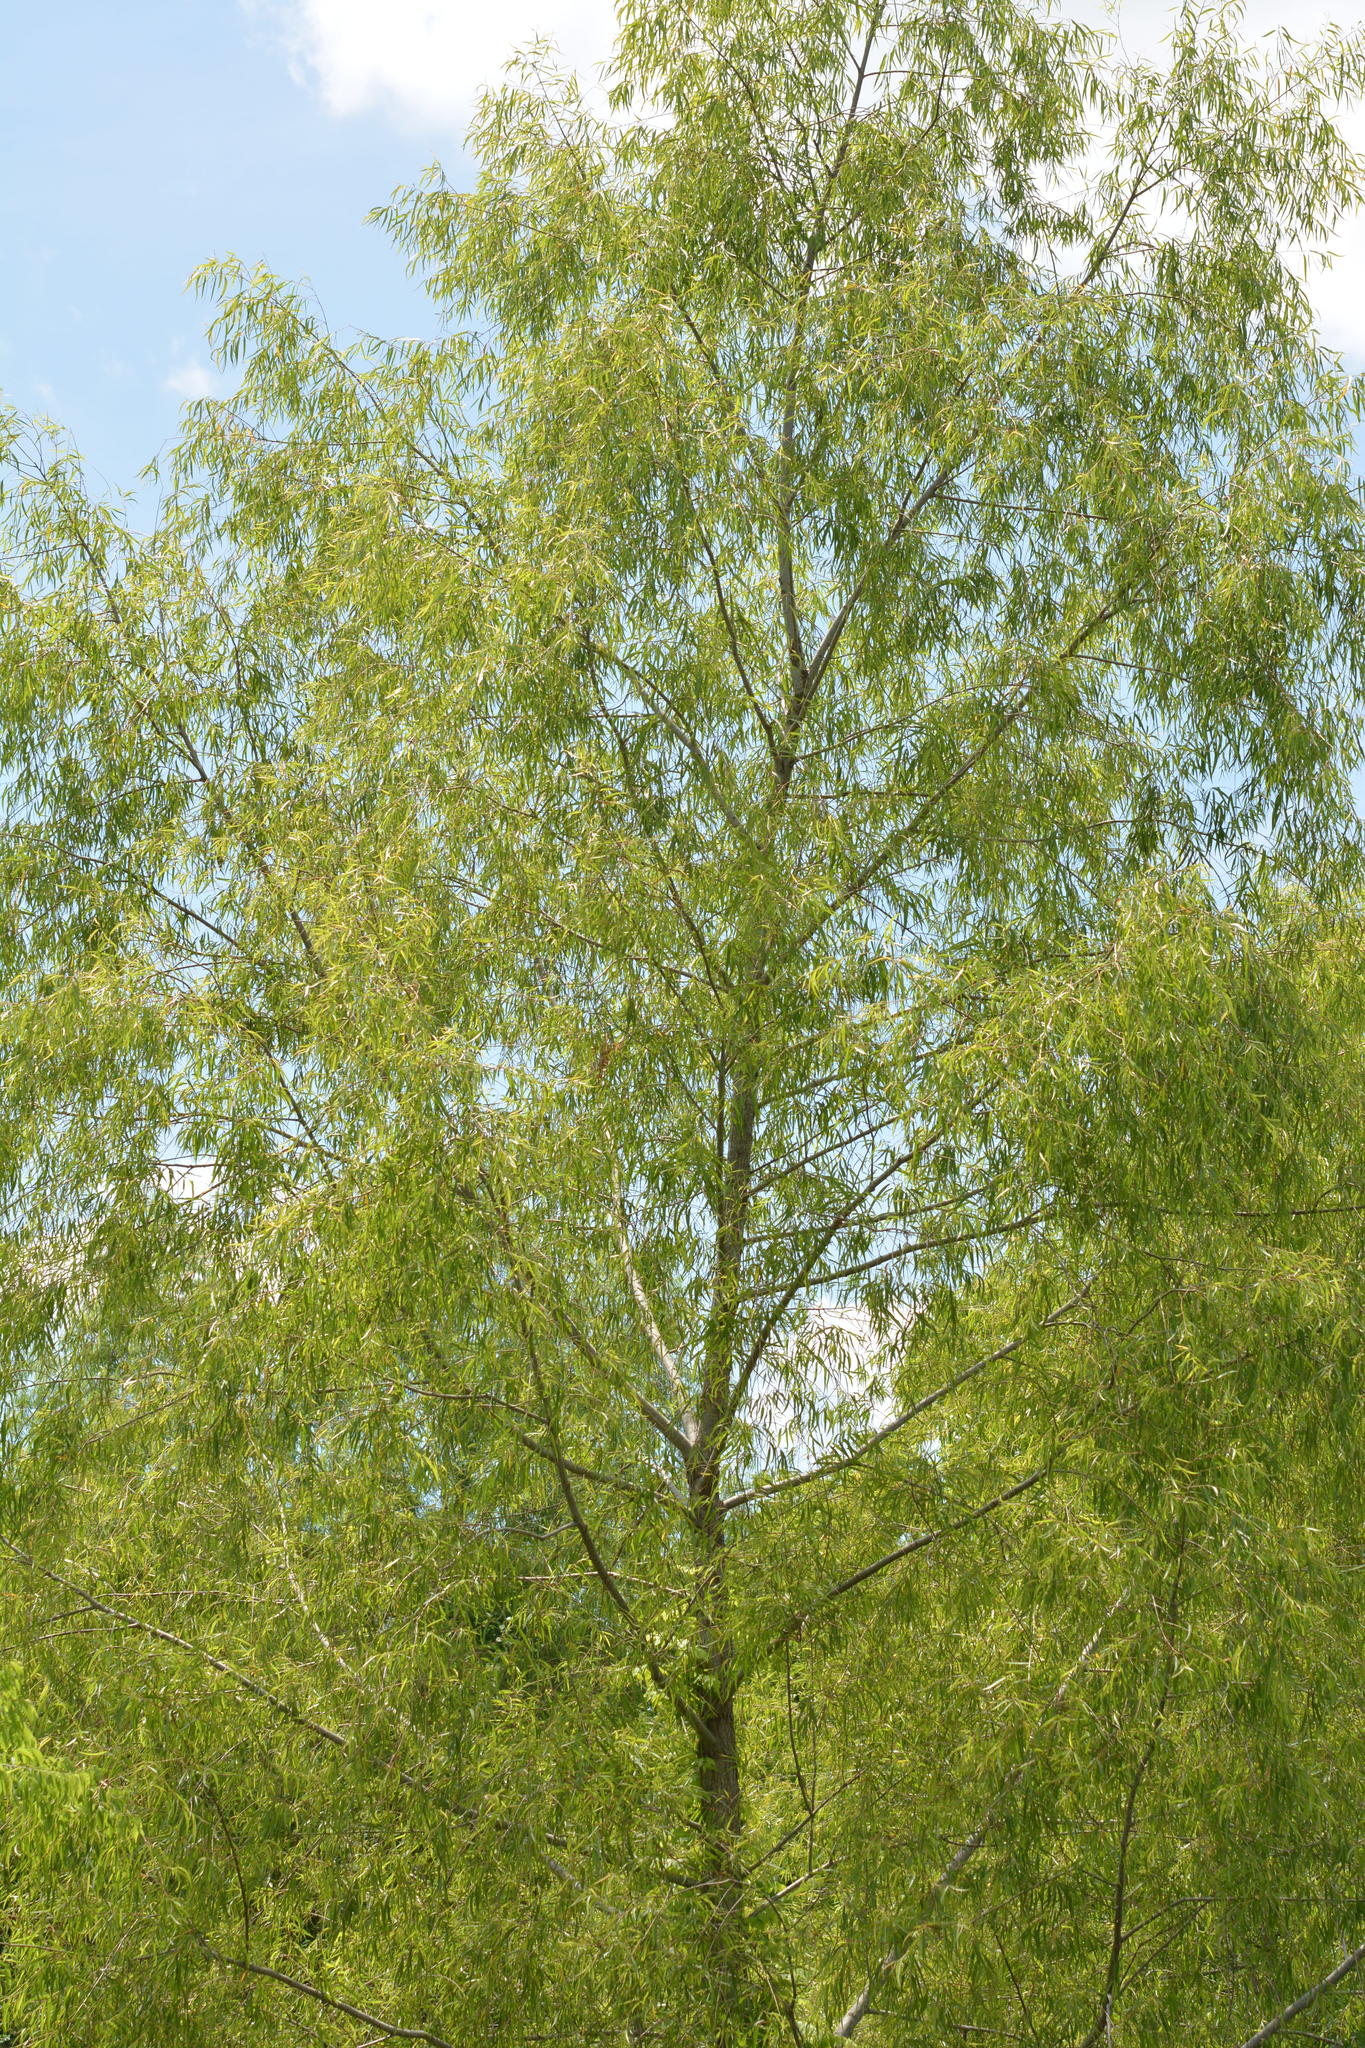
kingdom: Plantae
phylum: Tracheophyta
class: Magnoliopsida
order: Malpighiales
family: Salicaceae
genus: Salix
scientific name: Salix nigra
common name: Black willow
